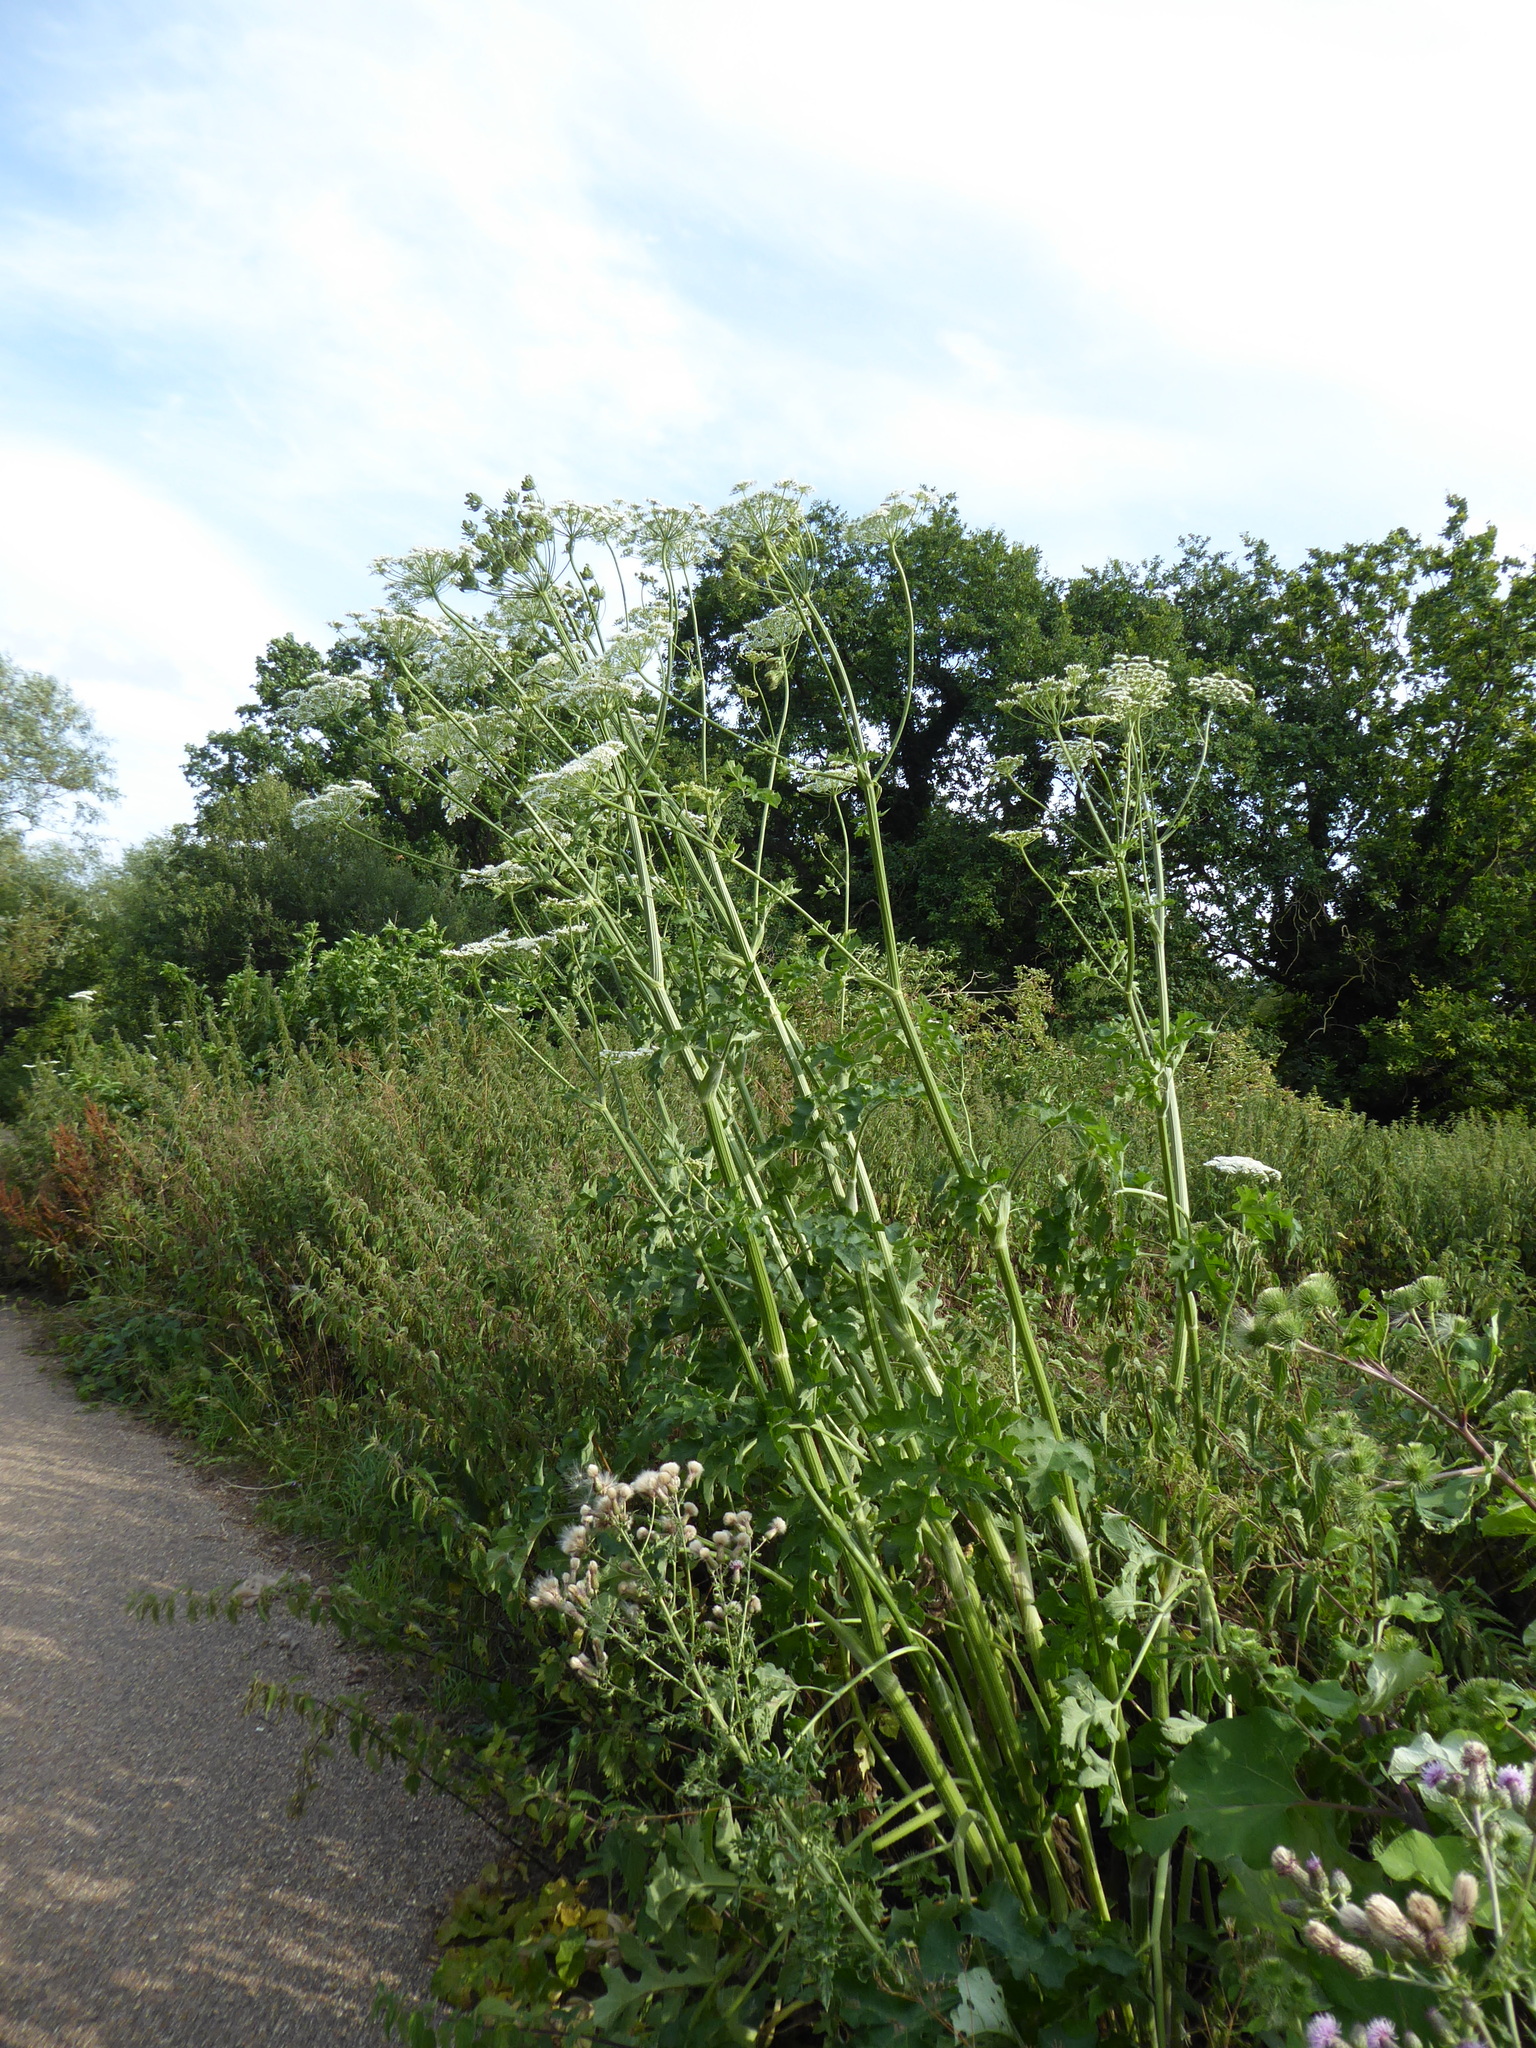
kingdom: Plantae
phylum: Tracheophyta
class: Magnoliopsida
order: Apiales
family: Apiaceae
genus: Heracleum
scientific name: Heracleum sphondylium
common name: Hogweed
